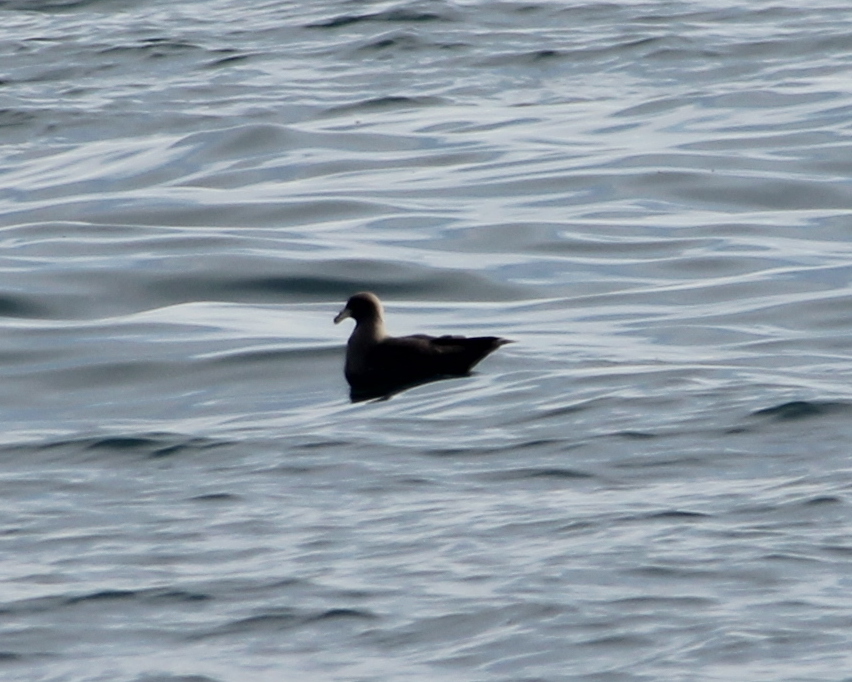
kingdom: Animalia
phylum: Chordata
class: Aves
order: Procellariiformes
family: Procellariidae
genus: Fulmarus
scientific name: Fulmarus glacialis
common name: Northern fulmar
